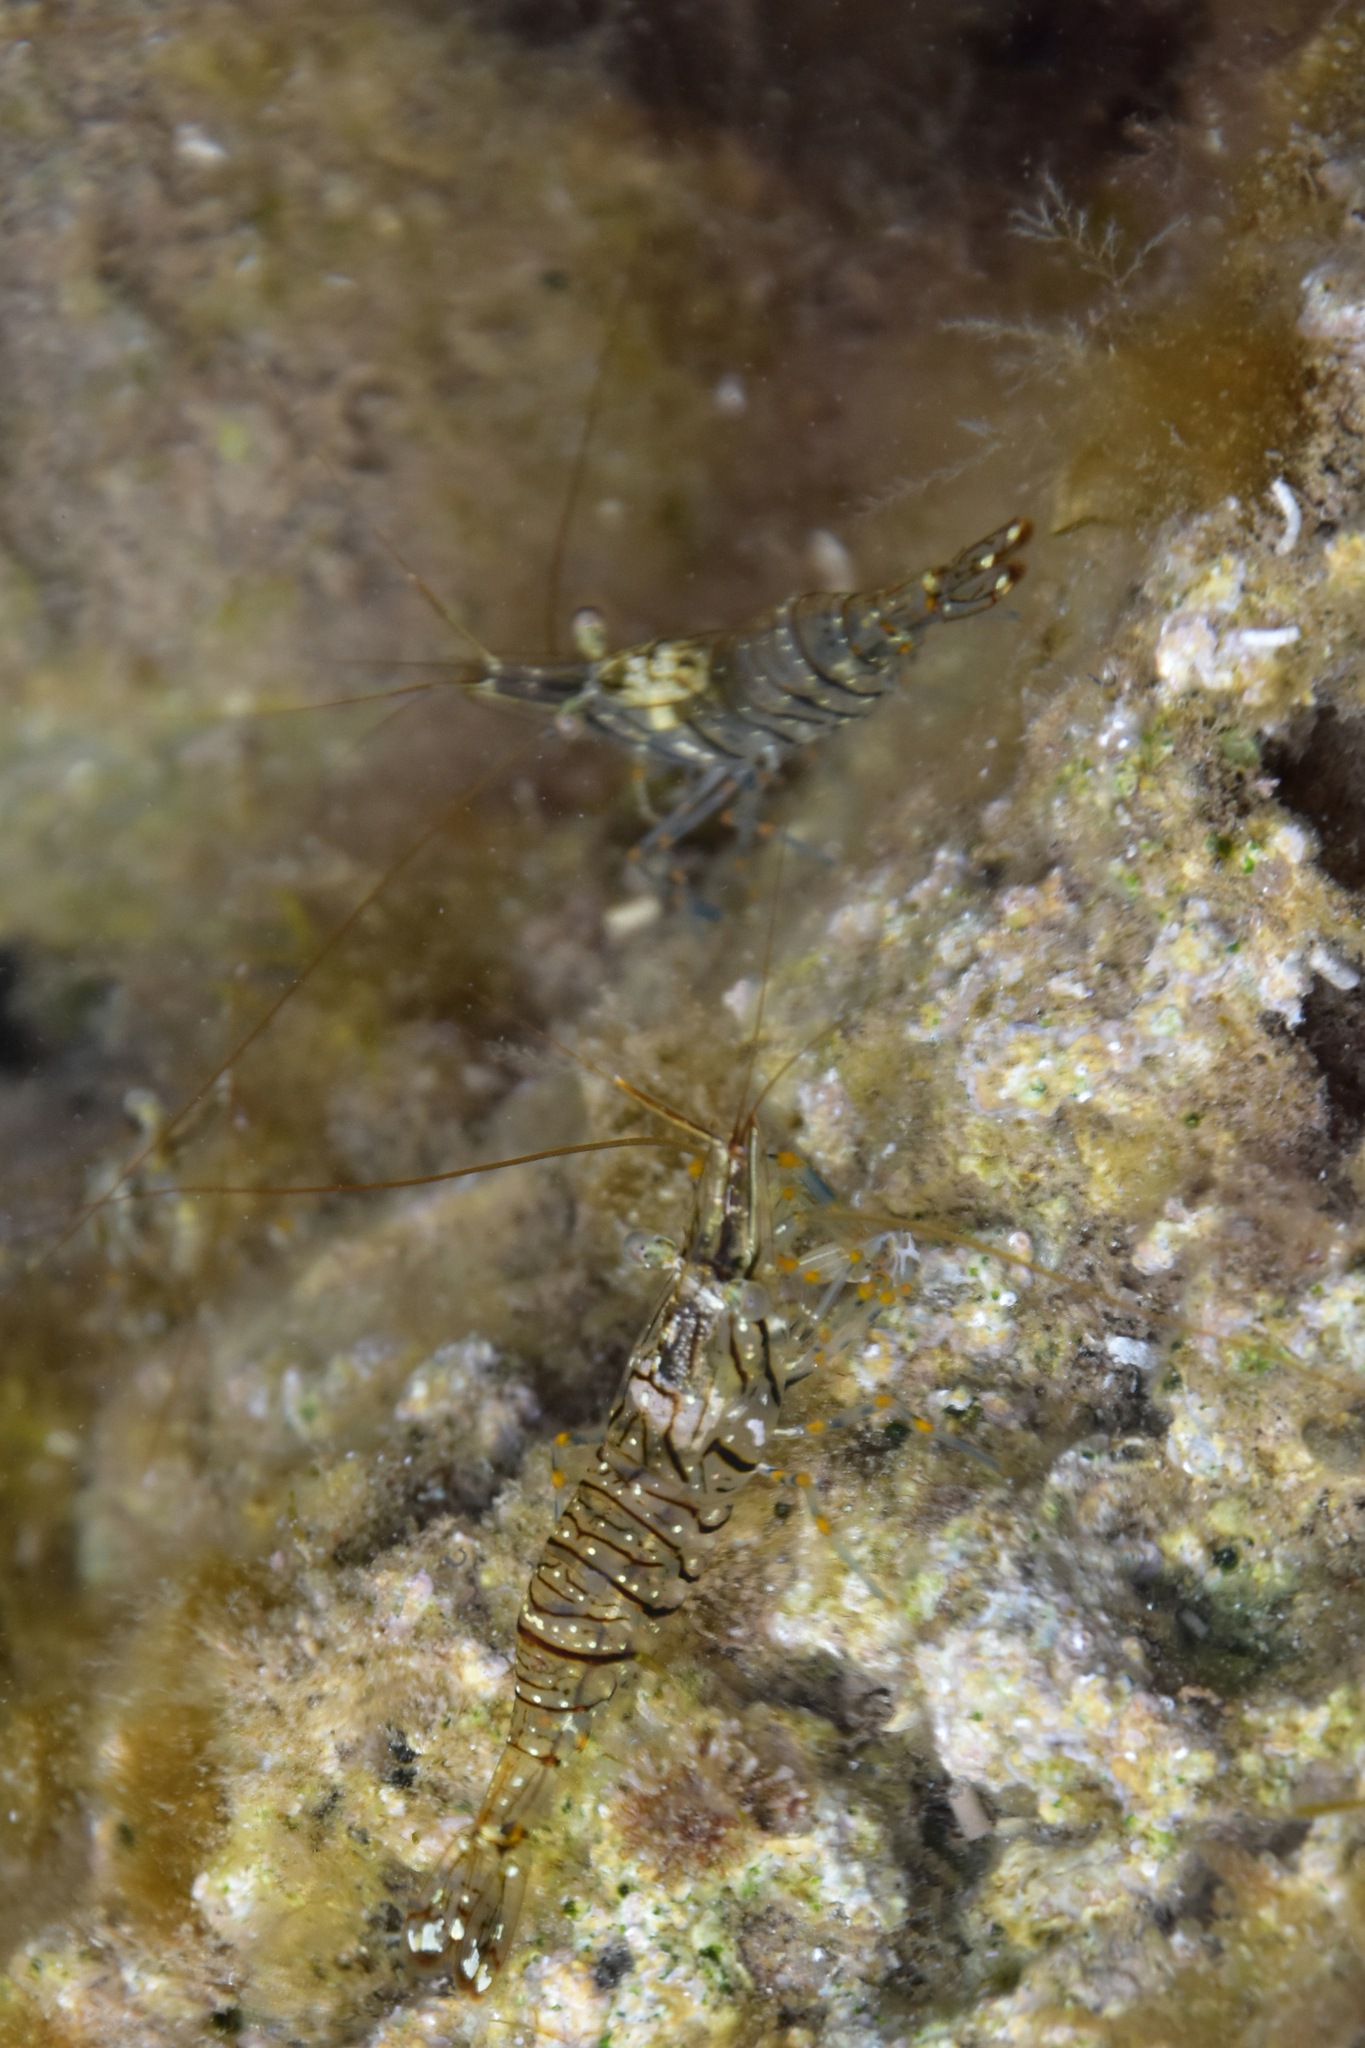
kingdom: Animalia
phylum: Arthropoda
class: Malacostraca
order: Decapoda
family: Palaemonidae
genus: Palaemon
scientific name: Palaemon elegans
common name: Grass prawm
